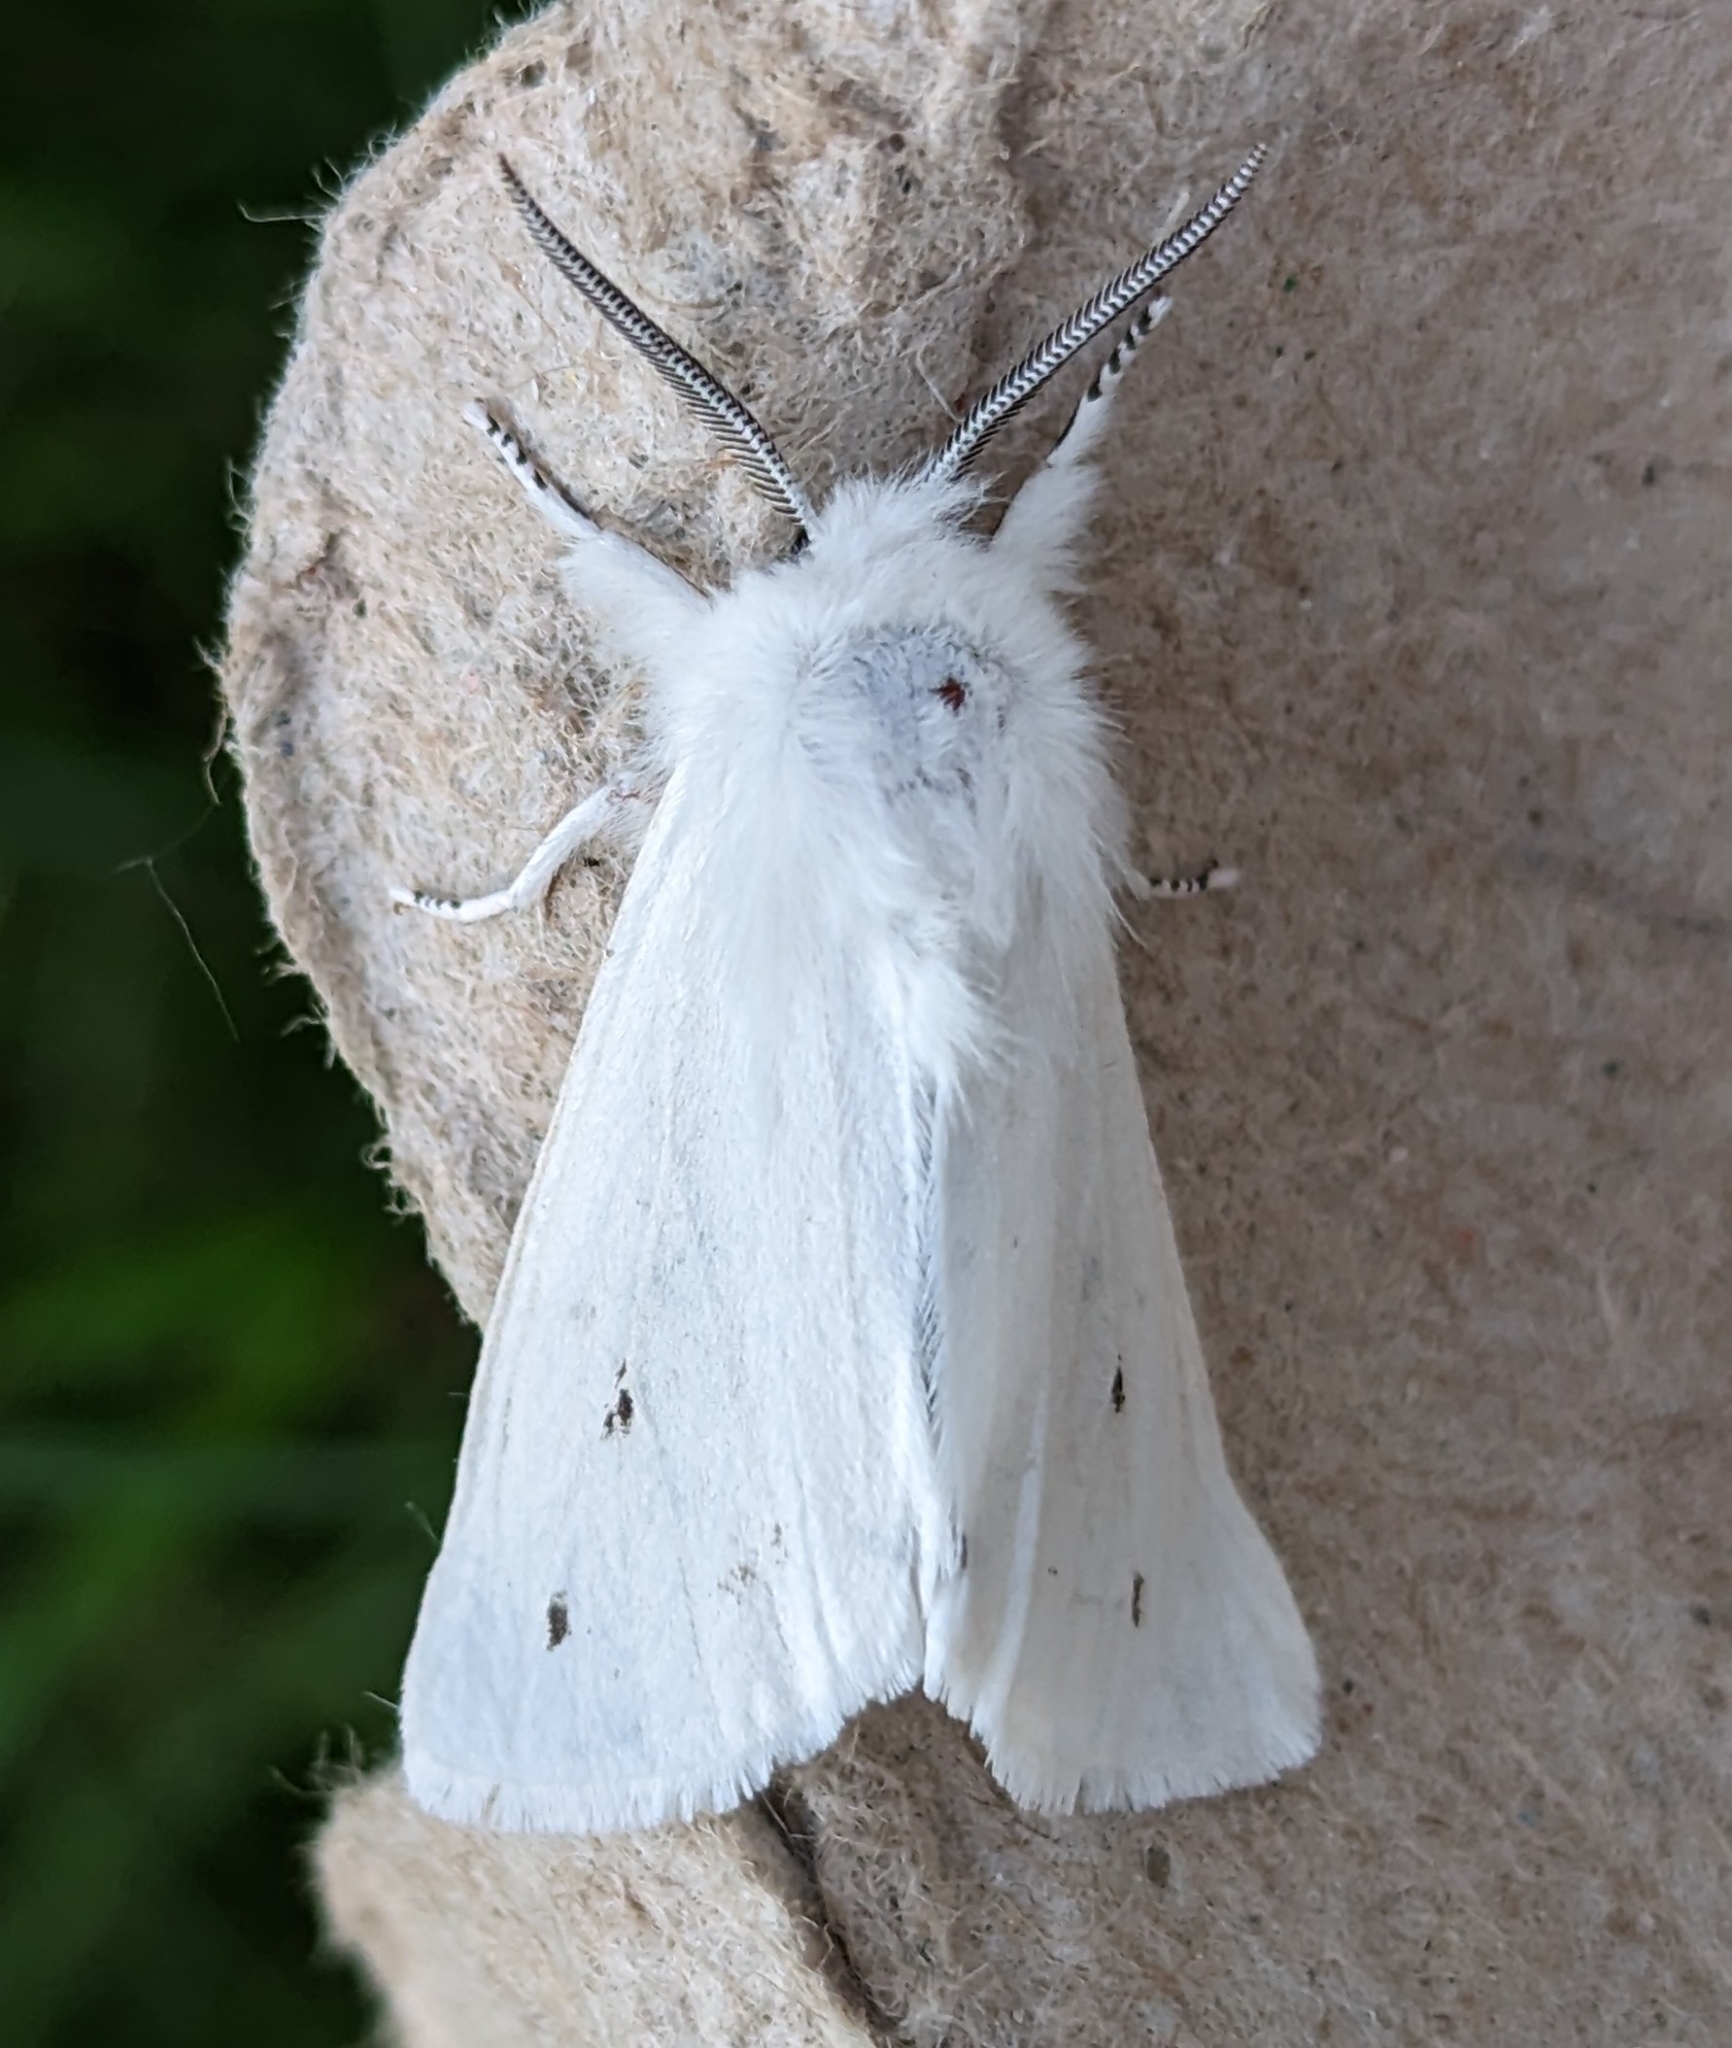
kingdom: Animalia
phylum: Arthropoda
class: Insecta
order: Lepidoptera
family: Erebidae
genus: Spilosoma
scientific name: Spilosoma virginica
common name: Virginia tiger moth
